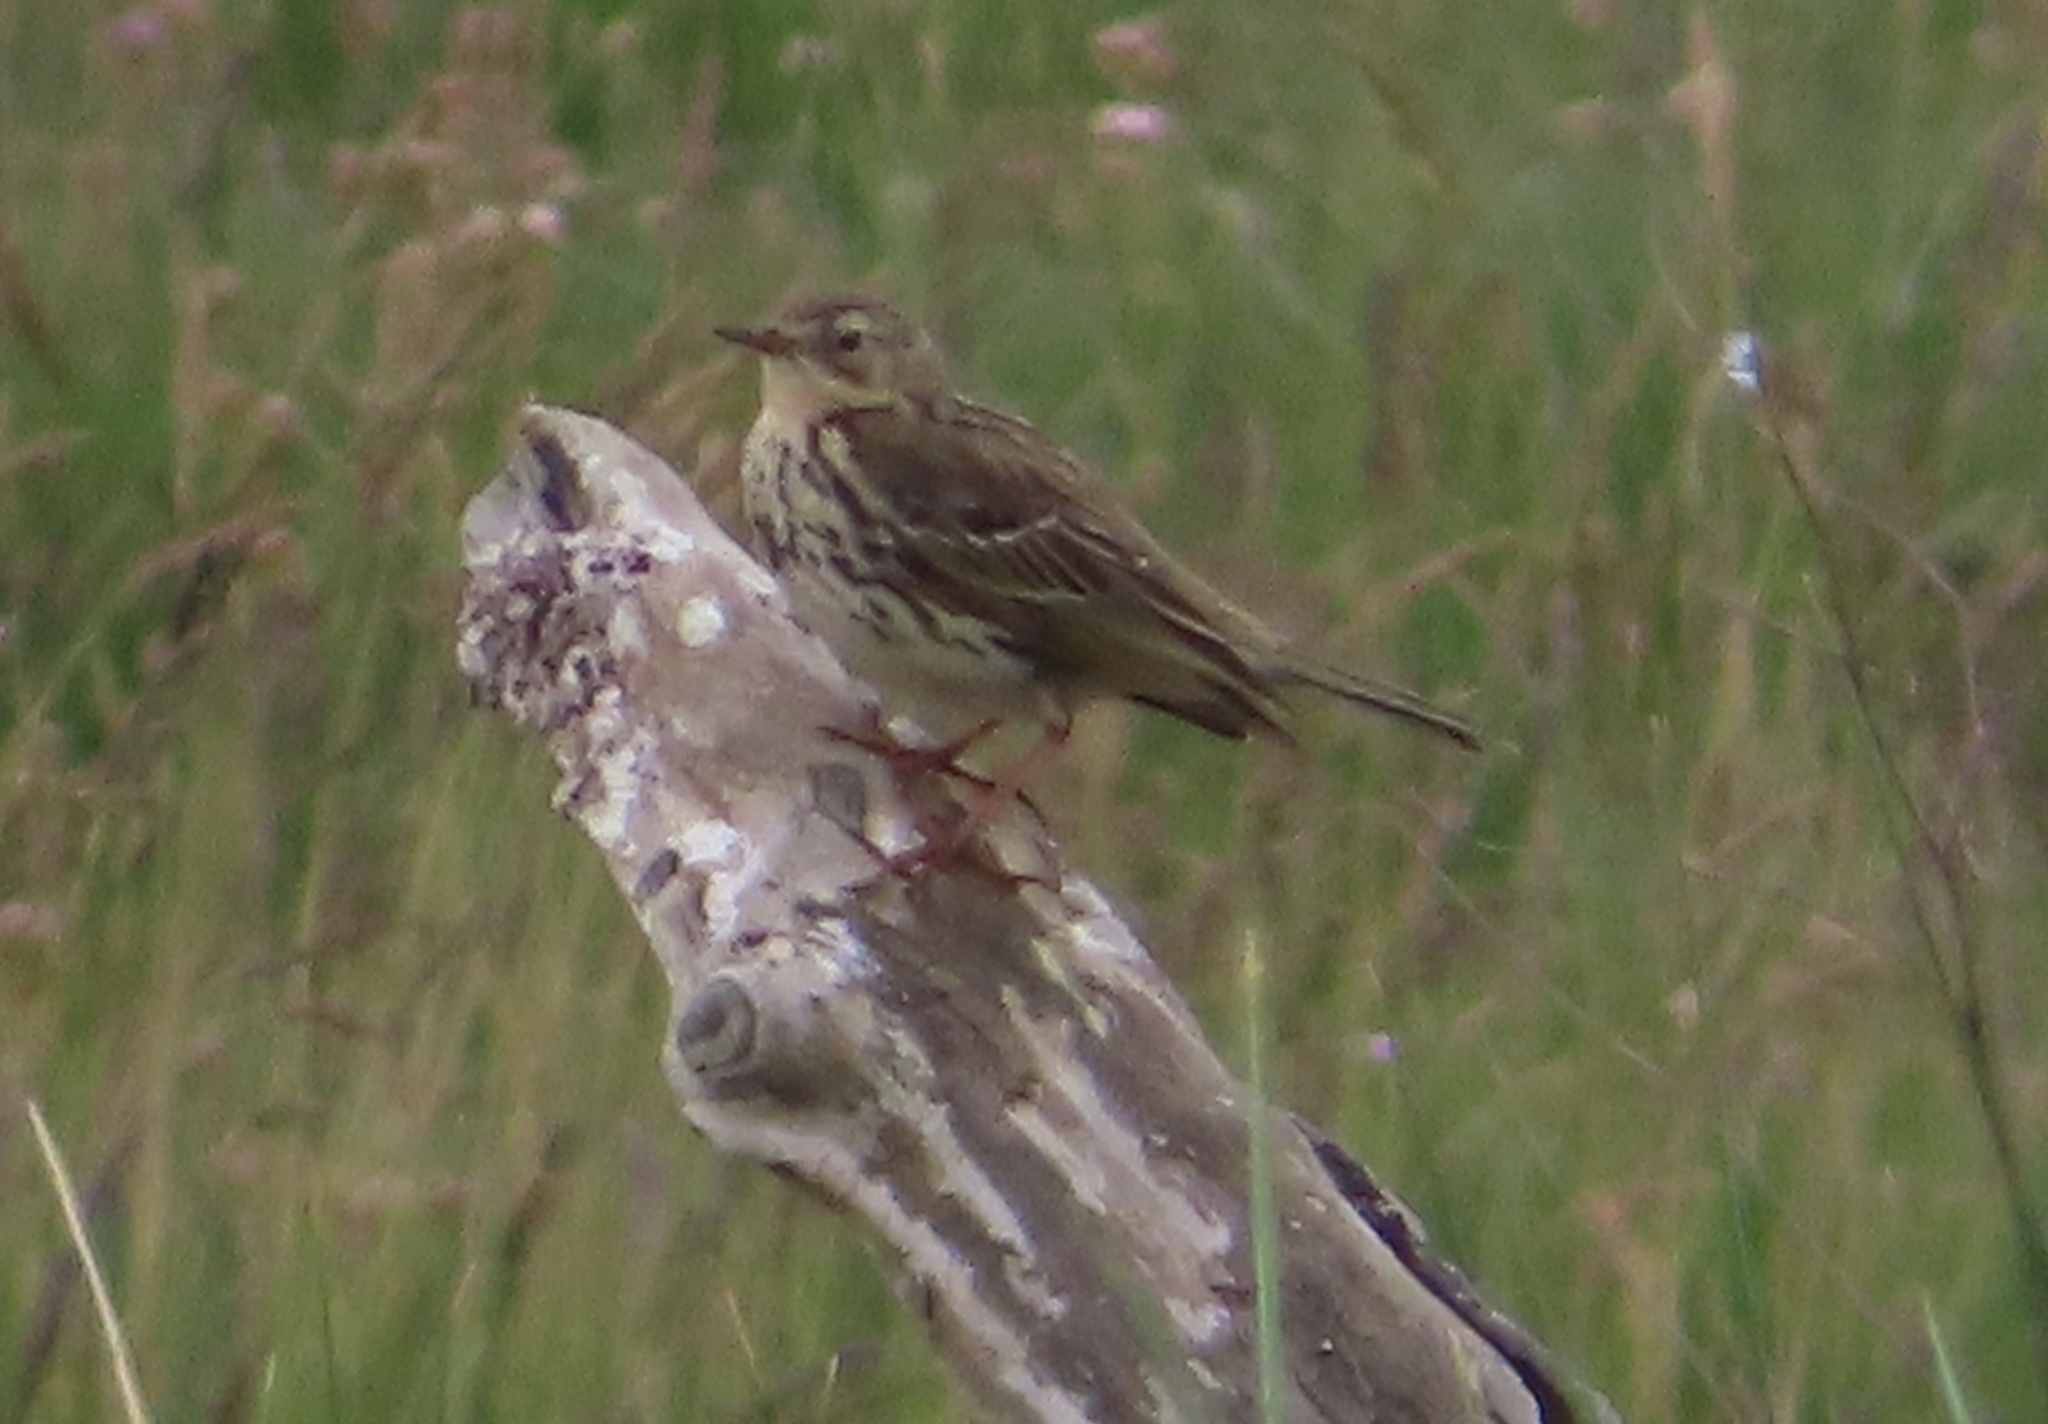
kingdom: Animalia
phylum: Chordata
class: Aves
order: Passeriformes
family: Motacillidae
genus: Anthus
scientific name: Anthus pratensis
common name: Meadow pipit
